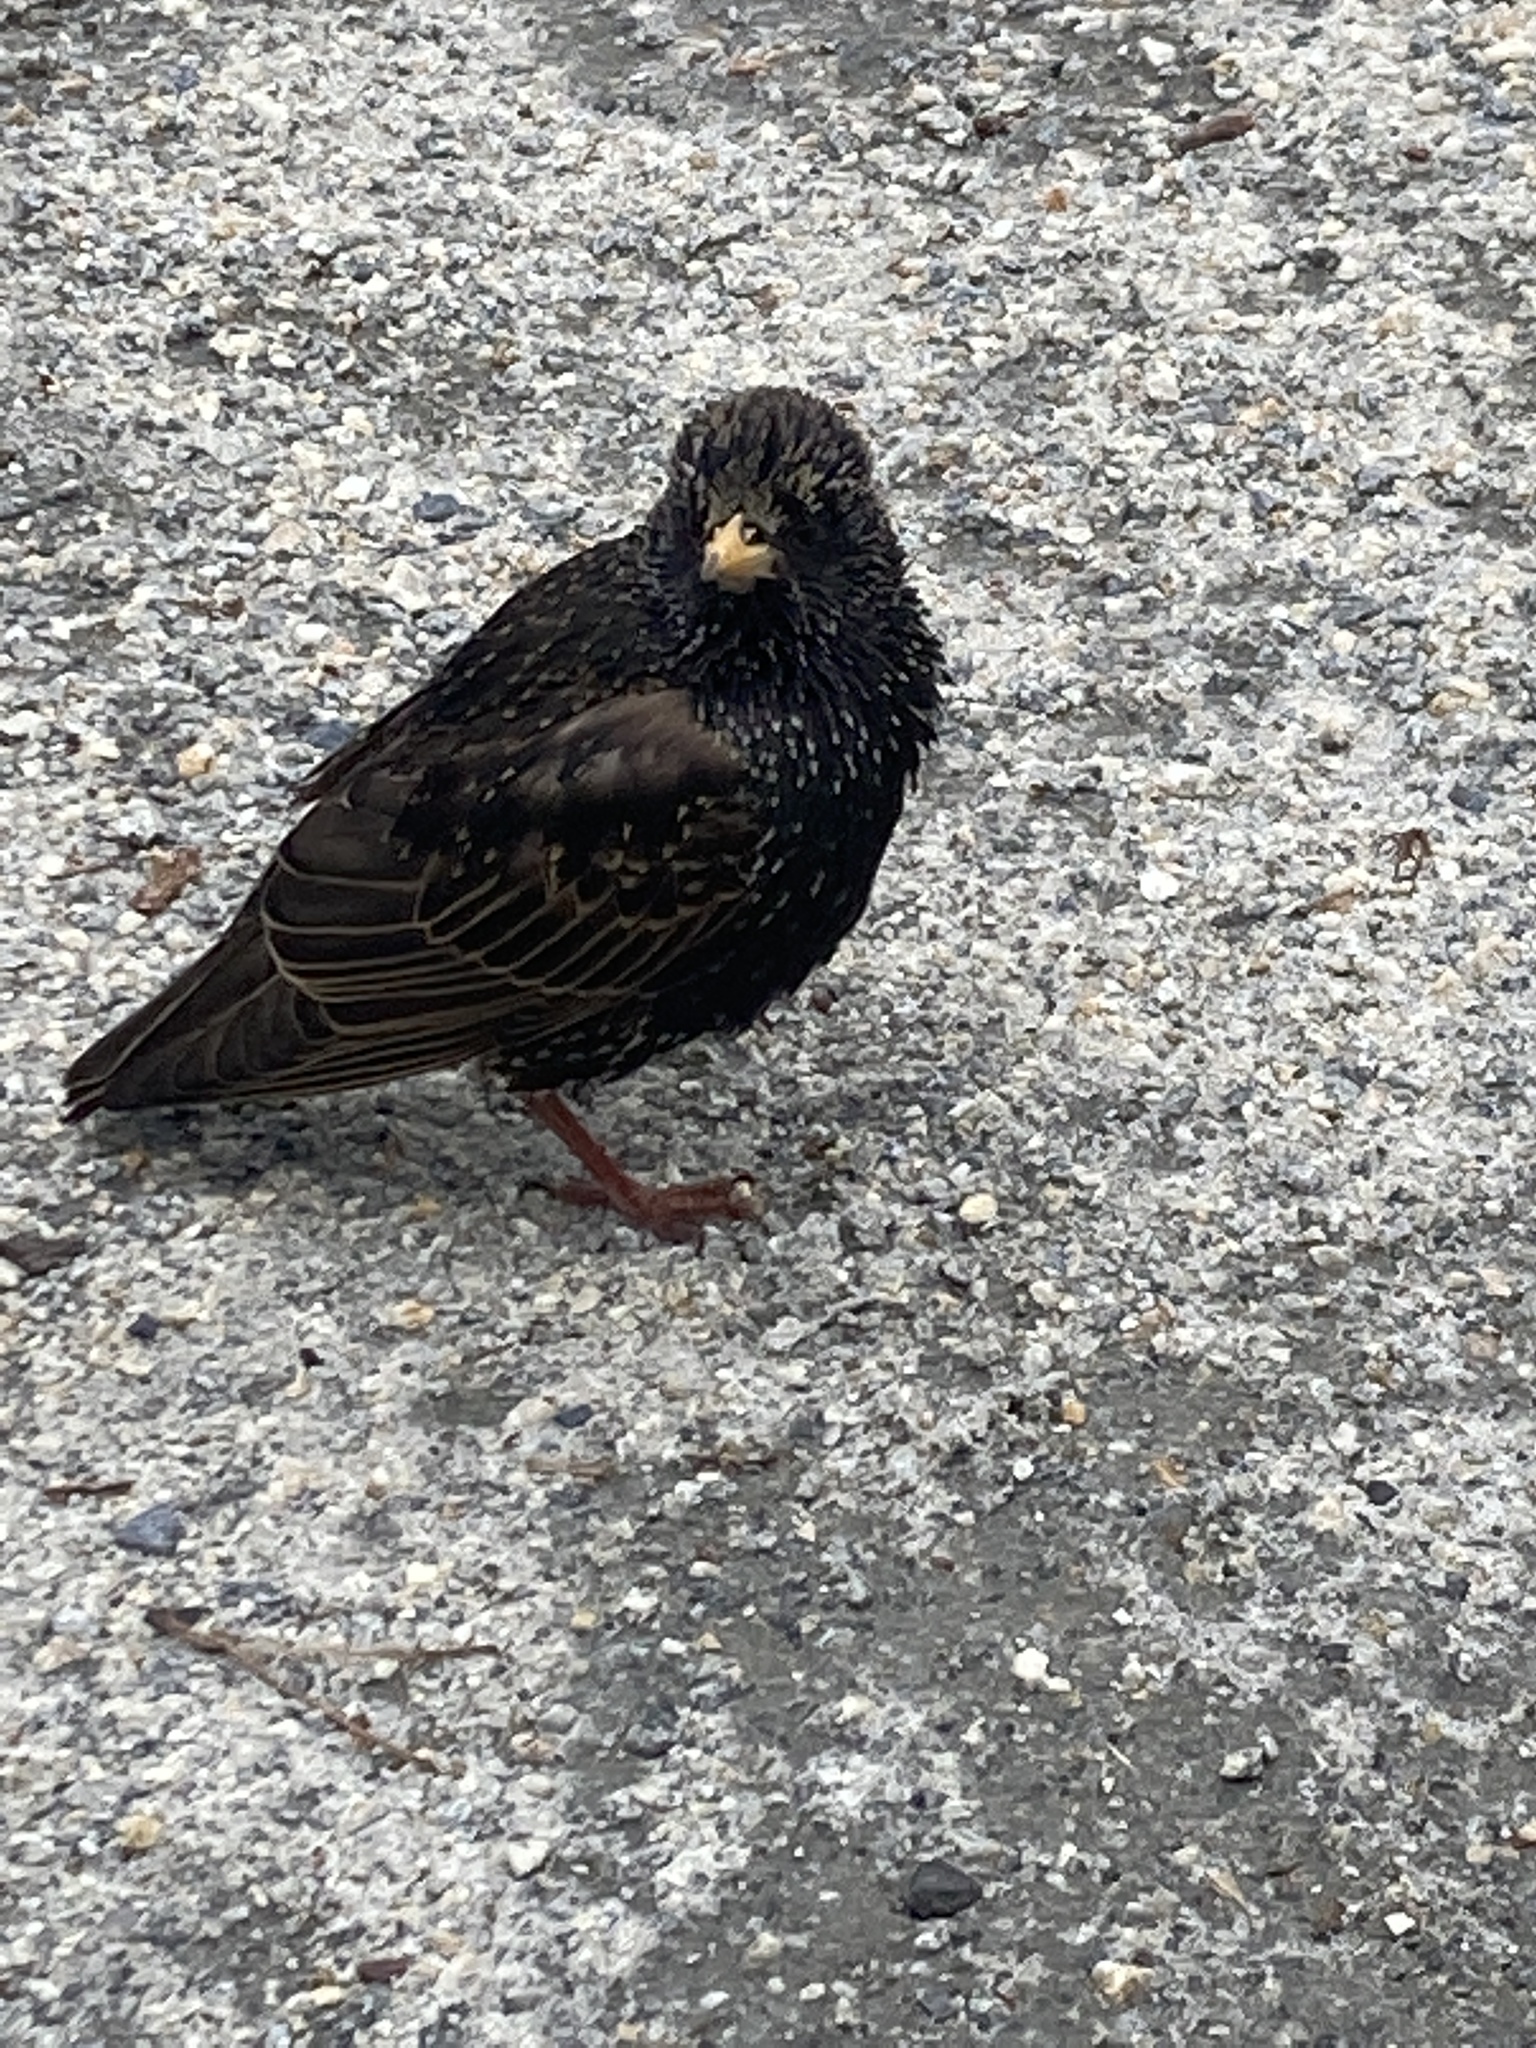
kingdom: Animalia
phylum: Chordata
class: Aves
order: Passeriformes
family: Sturnidae
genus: Sturnus
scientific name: Sturnus vulgaris
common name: Common starling
